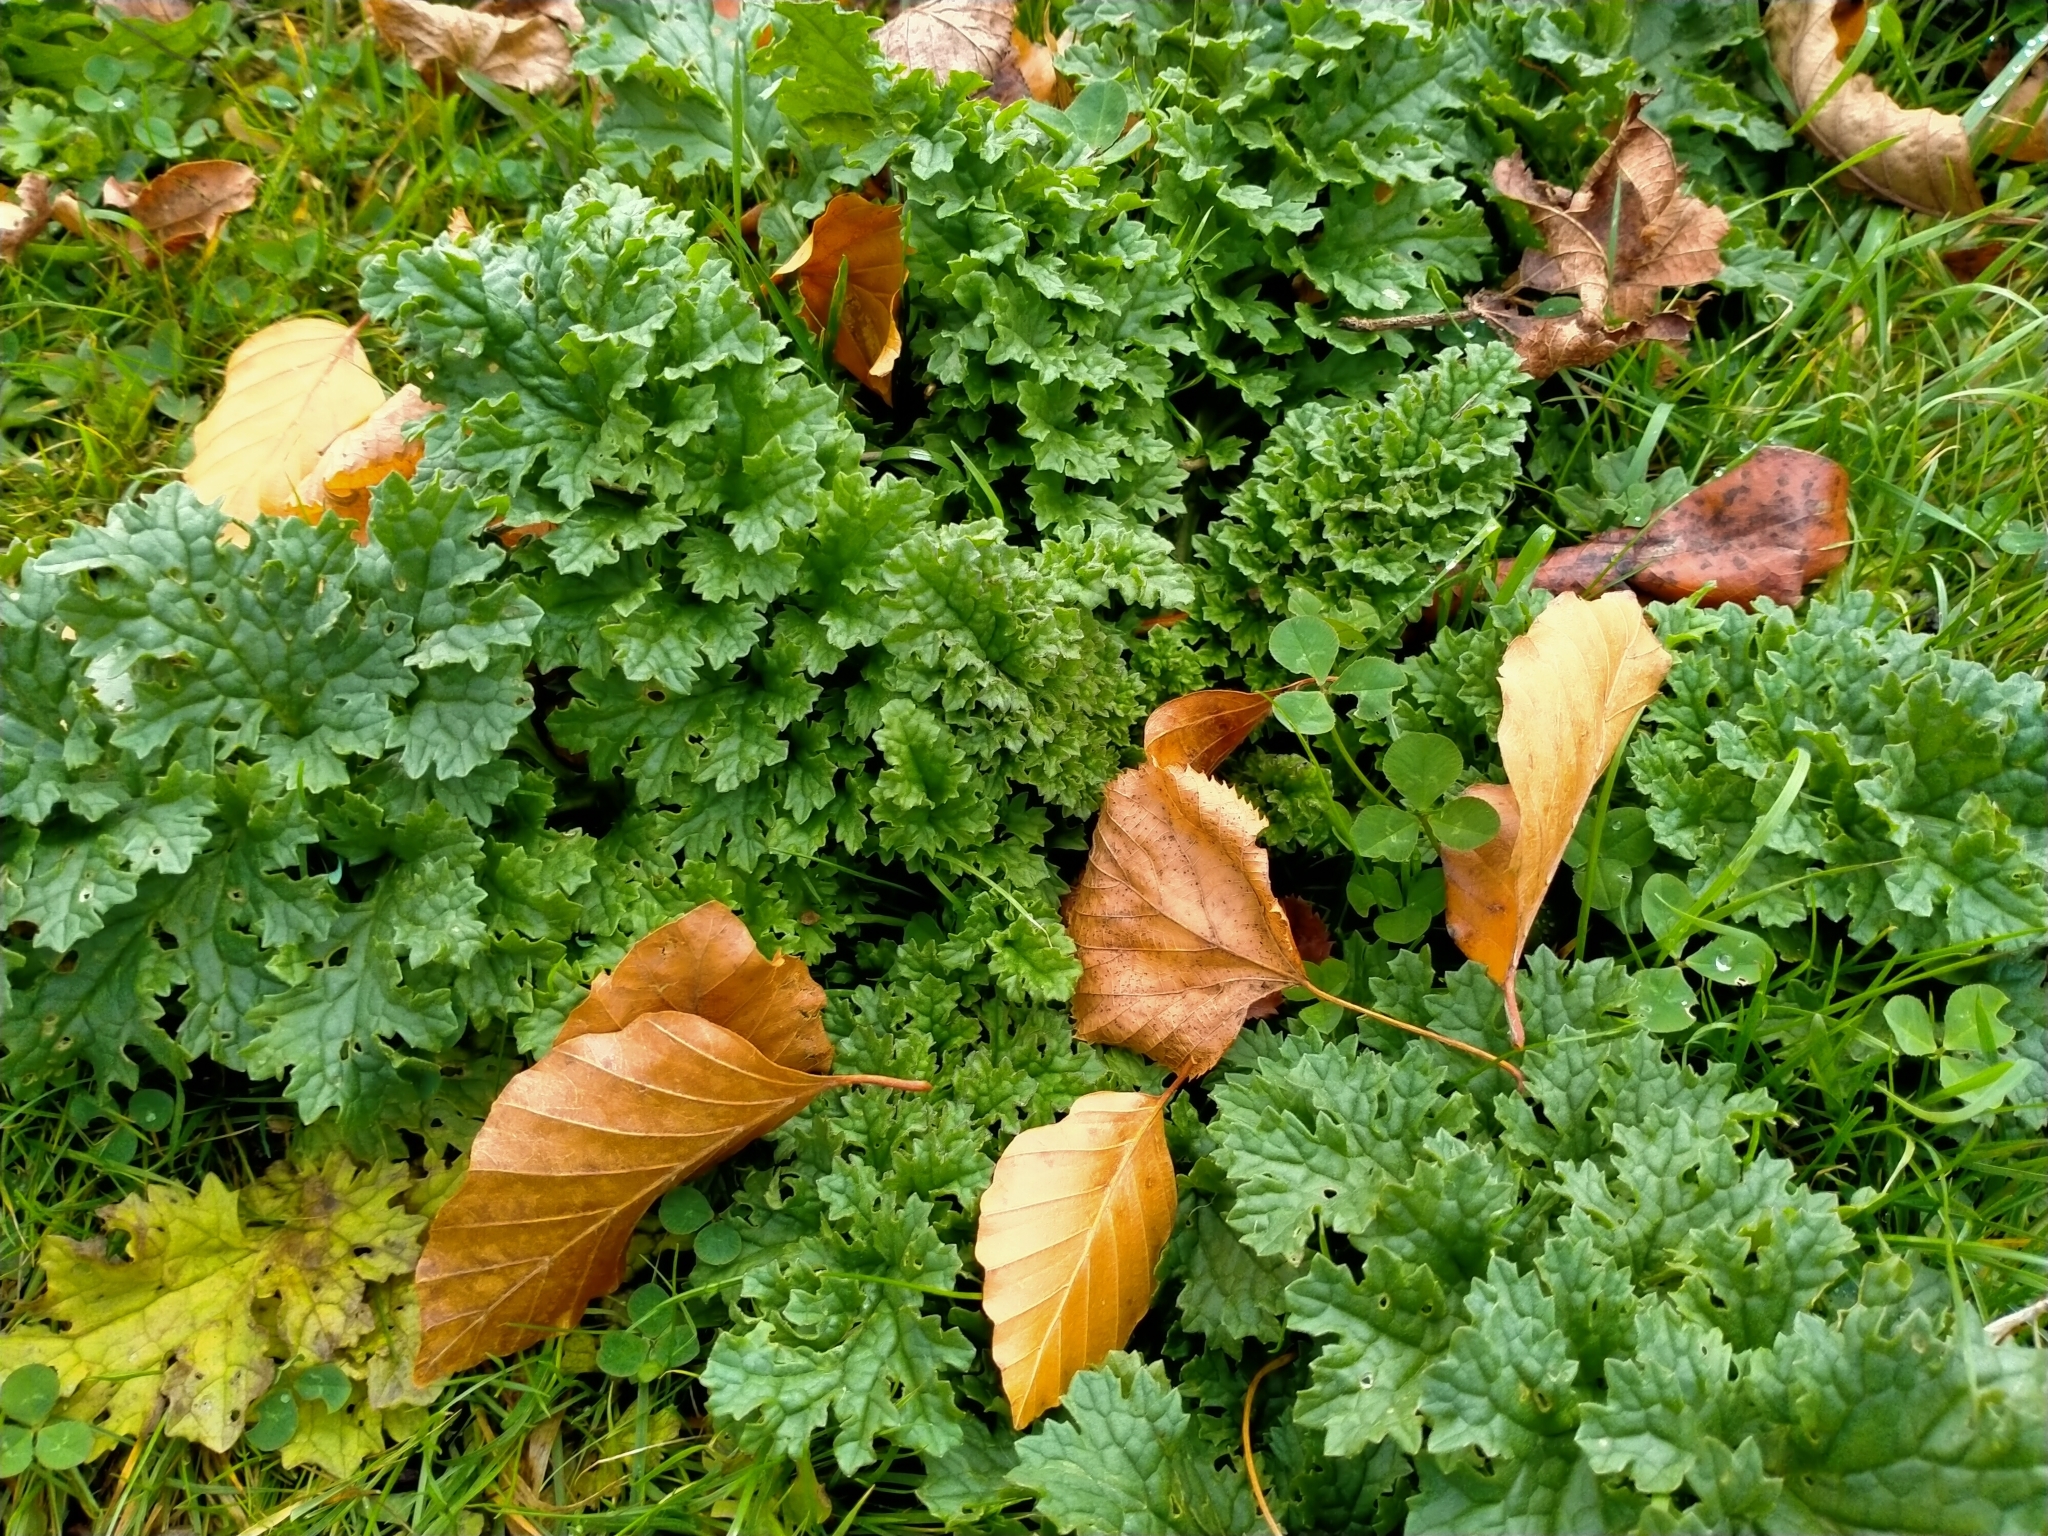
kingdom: Plantae
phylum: Tracheophyta
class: Magnoliopsida
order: Asterales
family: Asteraceae
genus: Jacobaea
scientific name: Jacobaea vulgaris
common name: Stinking willie
